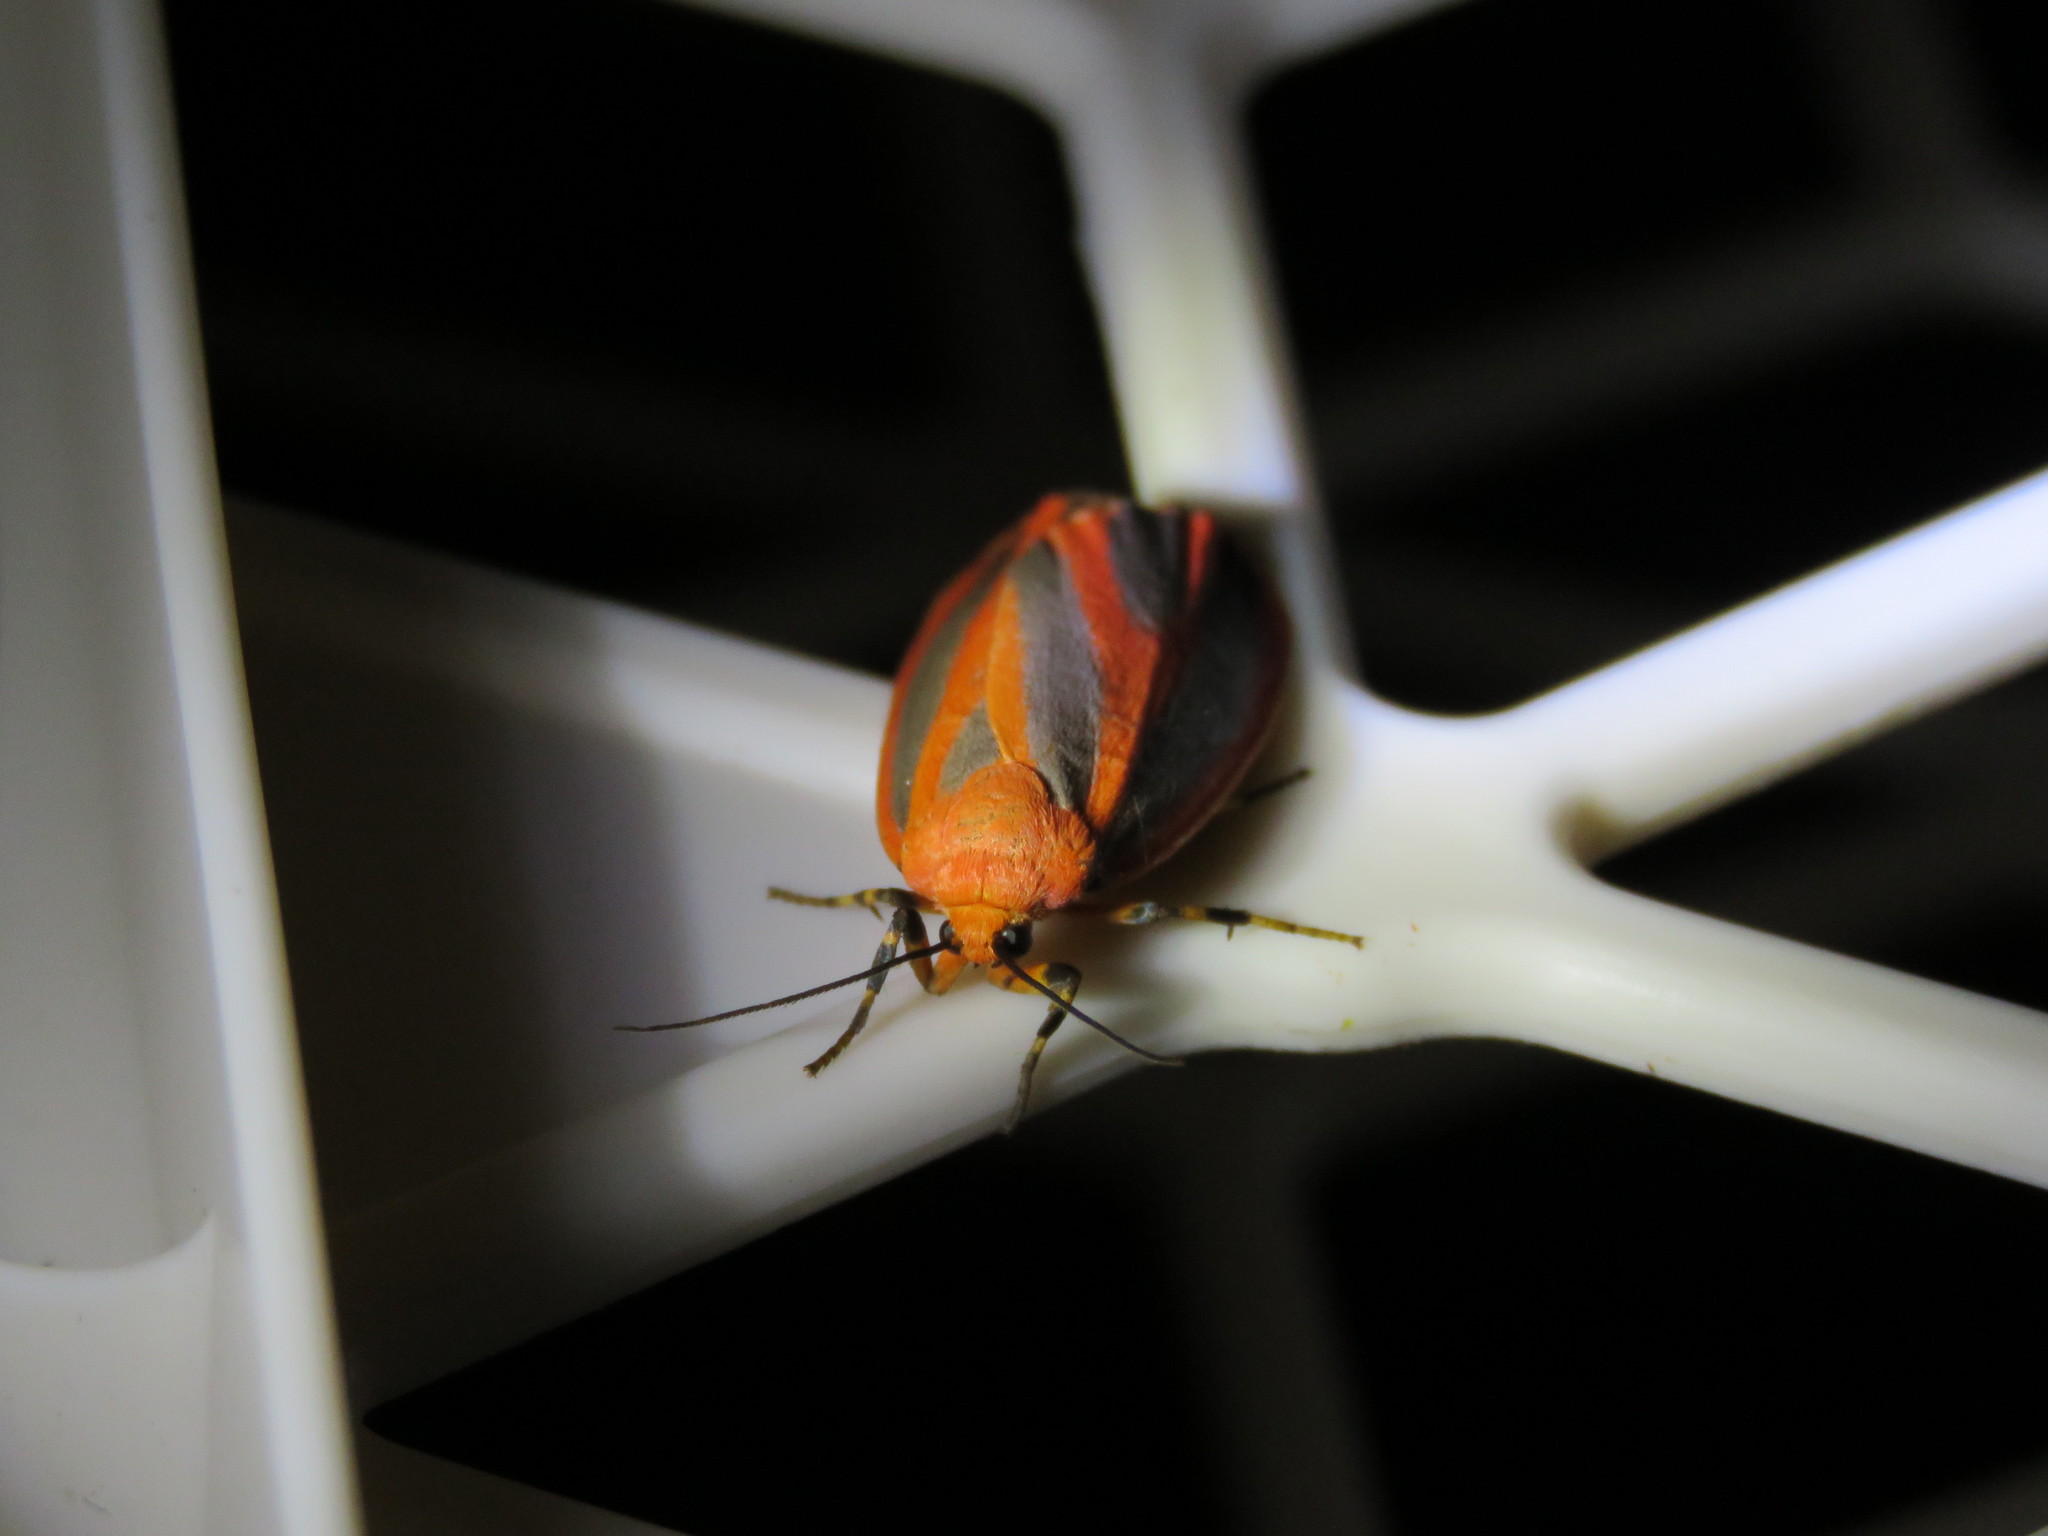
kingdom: Animalia
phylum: Arthropoda
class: Insecta
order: Lepidoptera
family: Erebidae
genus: Hypoprepia
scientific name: Hypoprepia miniata
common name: Scarlet-winged lichen moth
